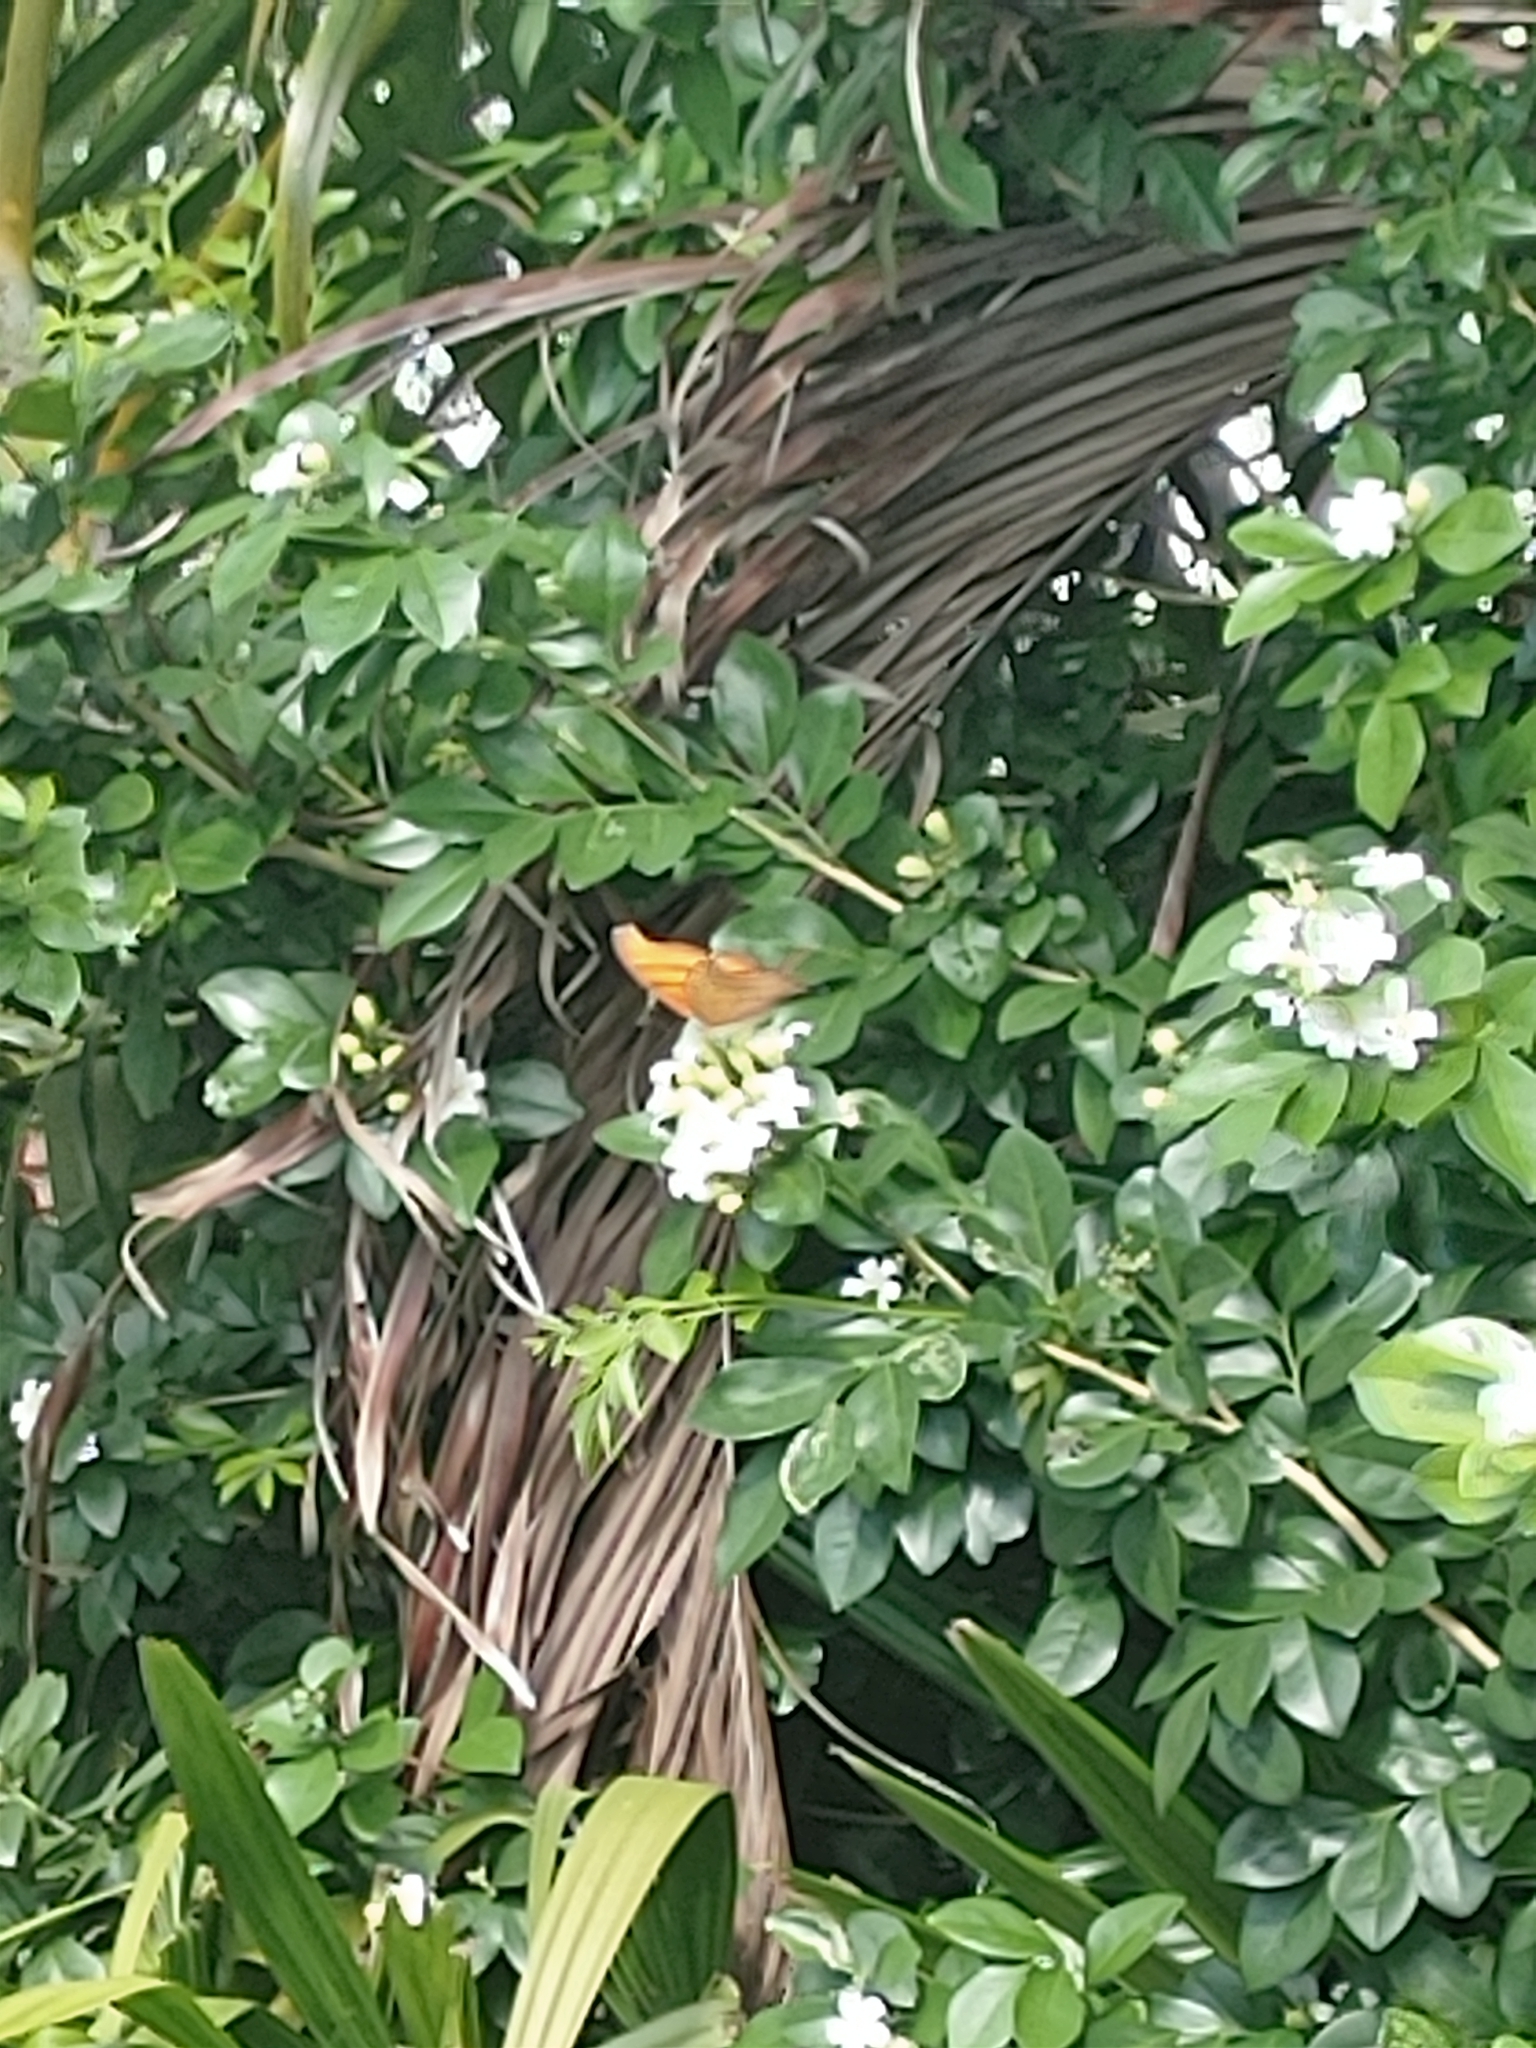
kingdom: Animalia
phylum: Arthropoda
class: Insecta
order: Lepidoptera
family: Nymphalidae
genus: Marpesia
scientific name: Marpesia petreus
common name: Red dagger wing
